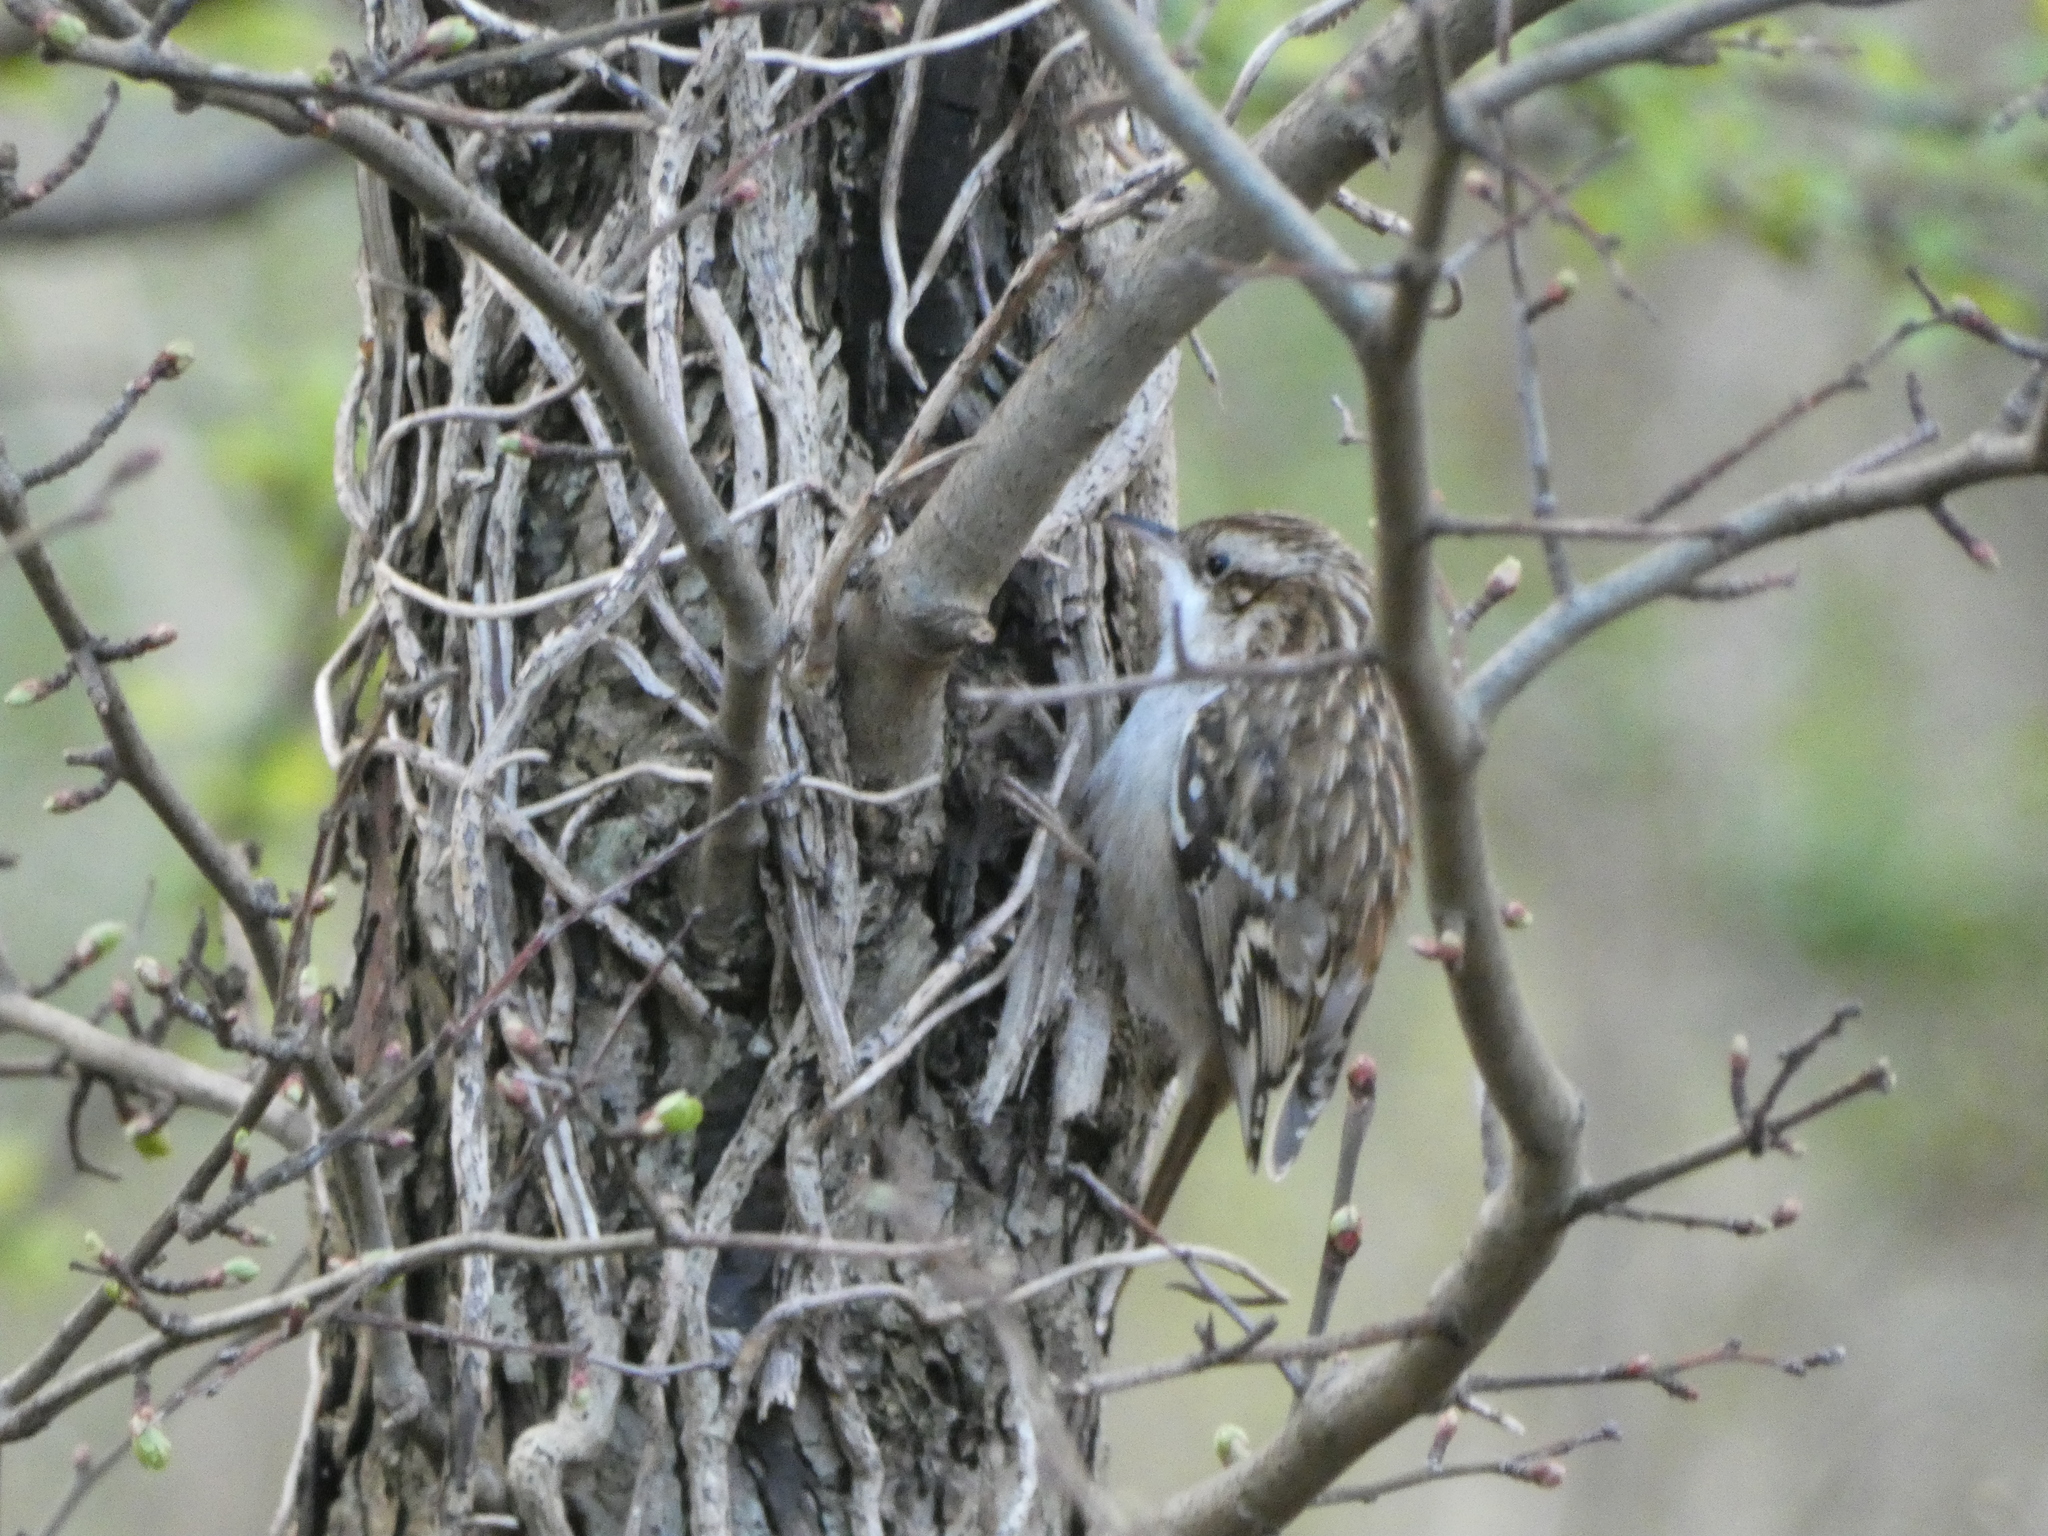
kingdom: Animalia
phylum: Chordata
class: Aves
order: Passeriformes
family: Certhiidae
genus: Certhia
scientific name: Certhia brachydactyla
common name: Short-toed treecreeper
